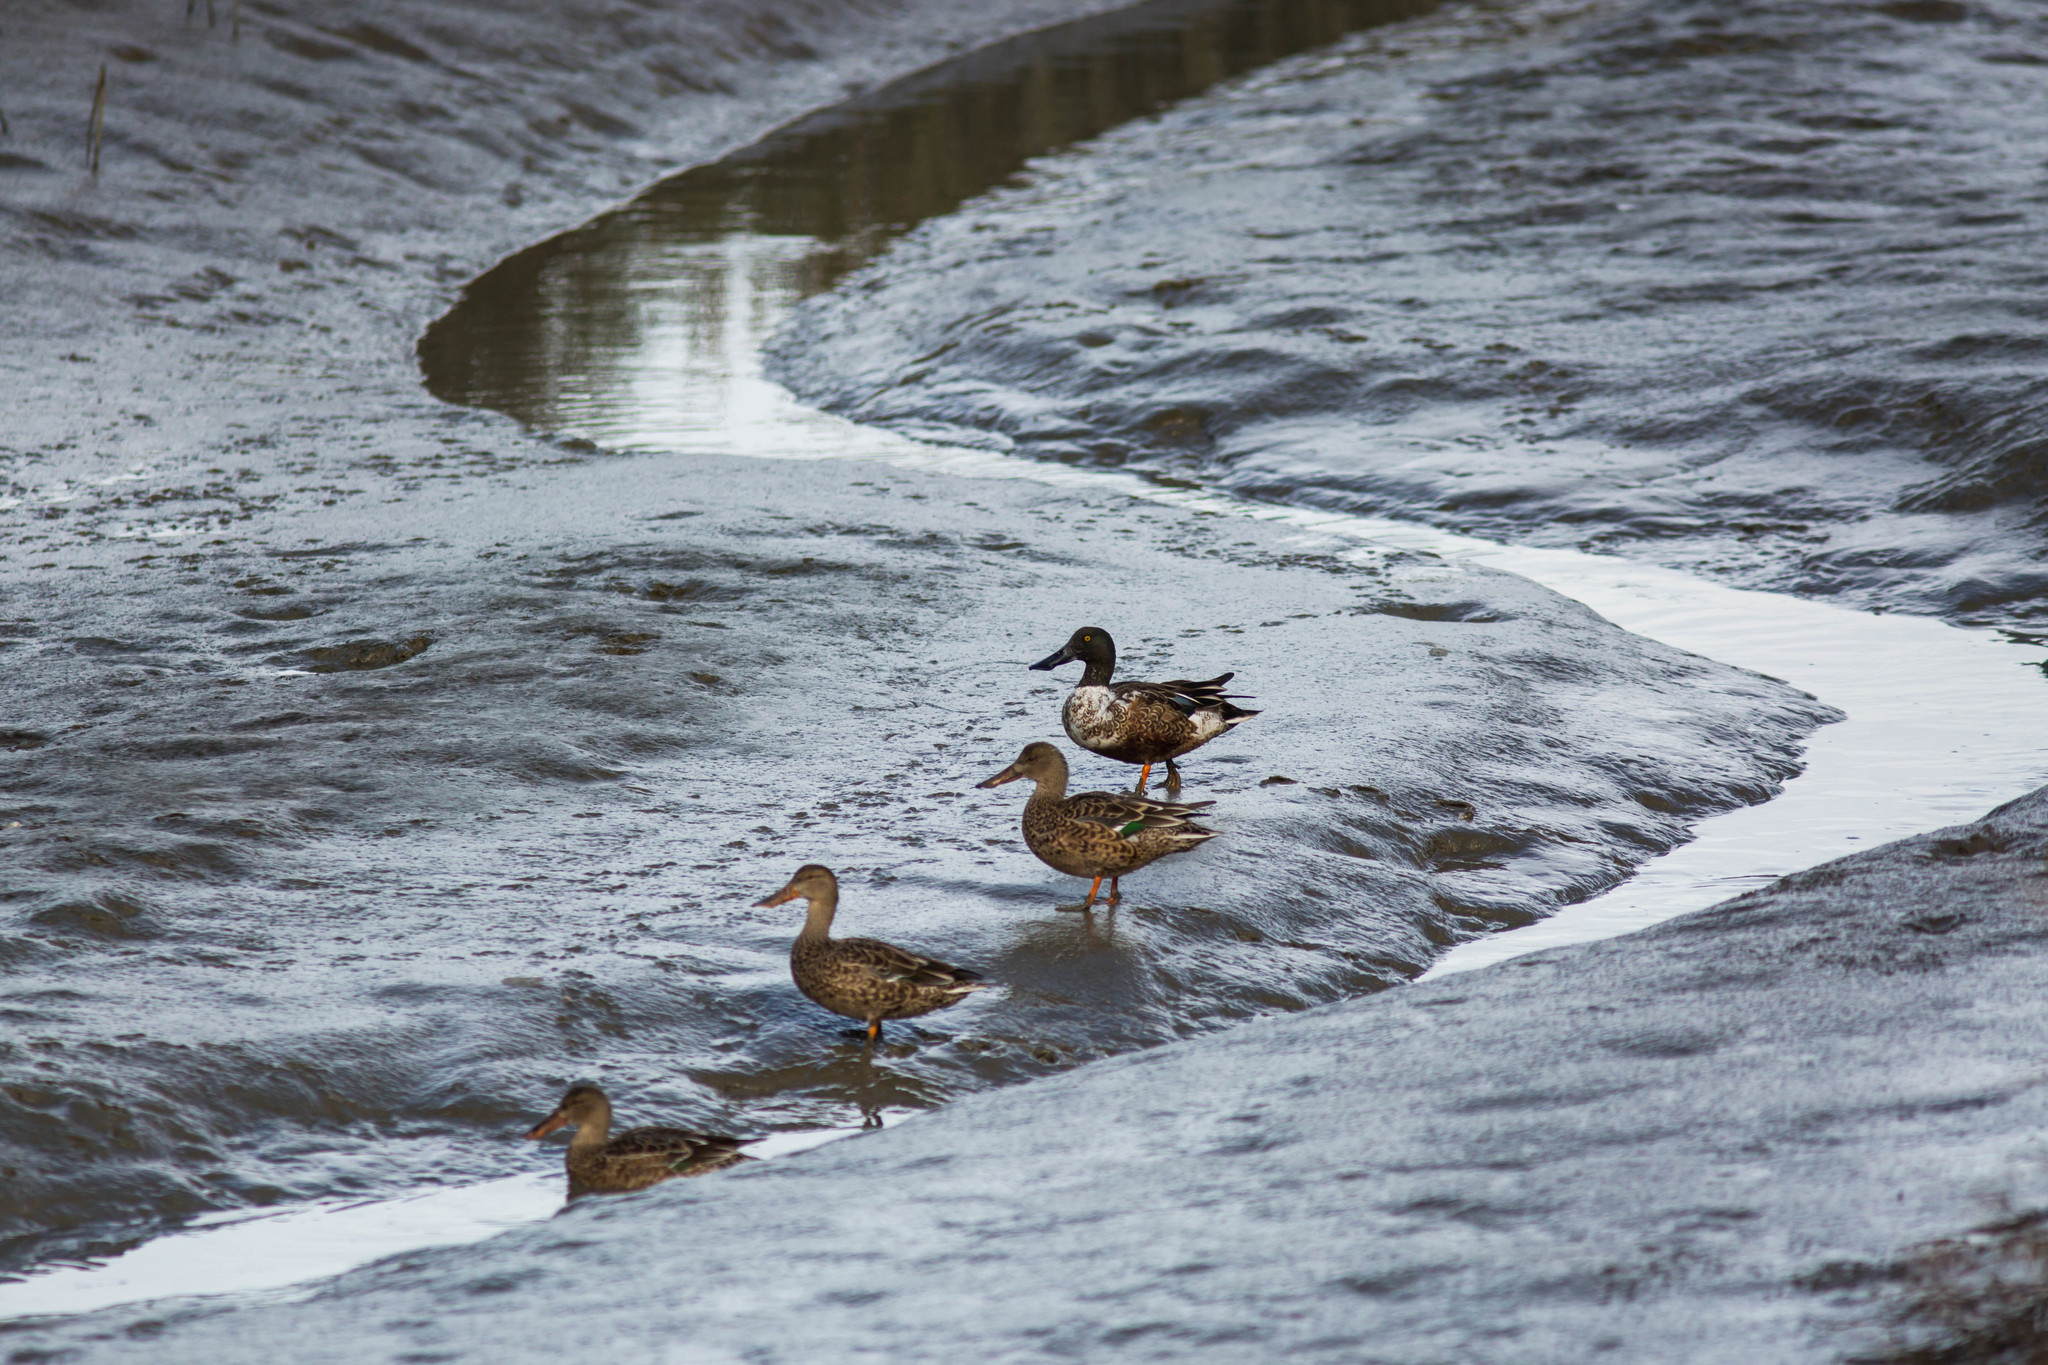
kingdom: Animalia
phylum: Chordata
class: Aves
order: Anseriformes
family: Anatidae
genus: Spatula
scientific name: Spatula clypeata
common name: Northern shoveler
